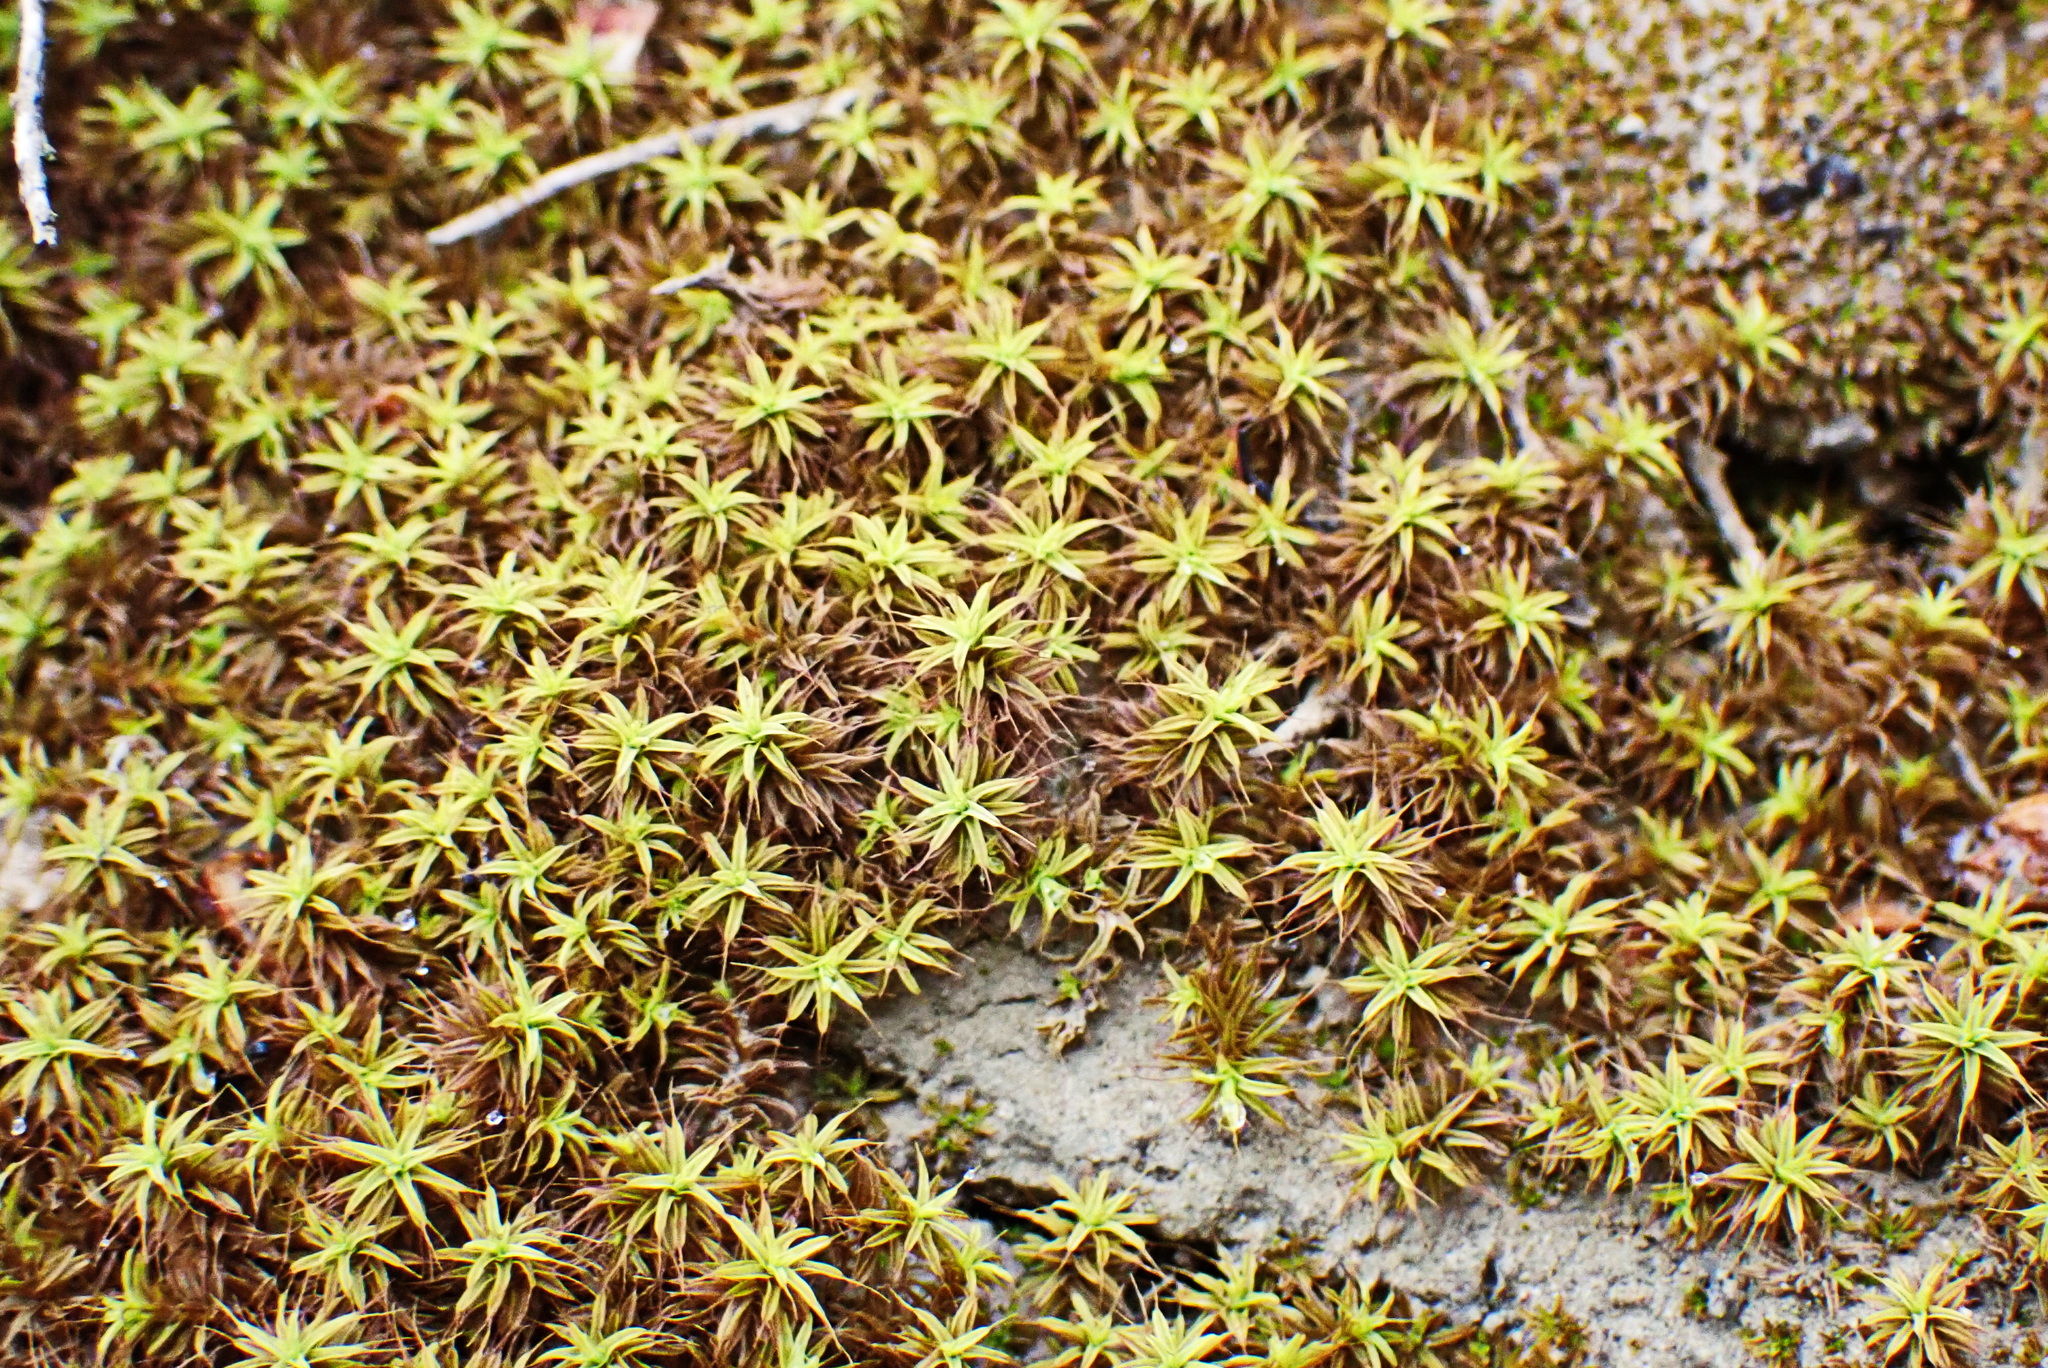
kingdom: Plantae
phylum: Bryophyta
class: Bryopsida
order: Pottiales
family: Pottiaceae
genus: Pseudocrossidium
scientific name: Pseudocrossidium crinitum
